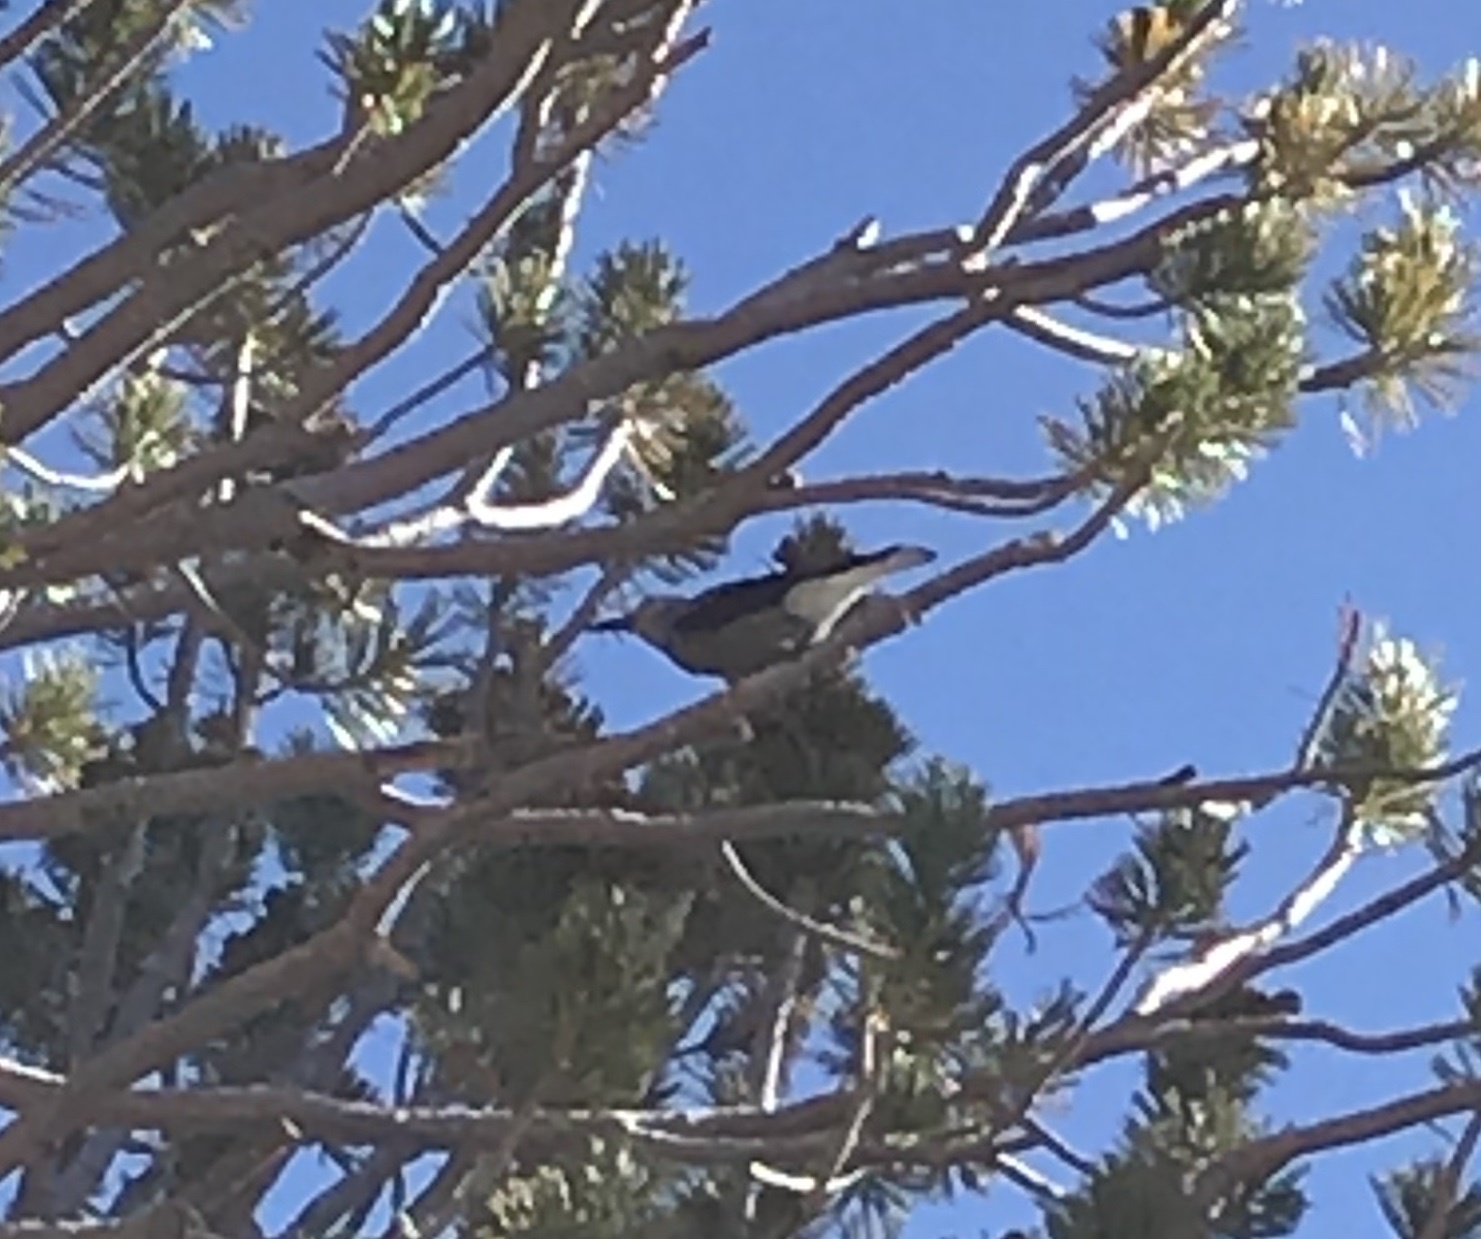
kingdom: Animalia
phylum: Chordata
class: Aves
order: Passeriformes
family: Corvidae
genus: Nucifraga
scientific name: Nucifraga columbiana
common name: Clark's nutcracker
